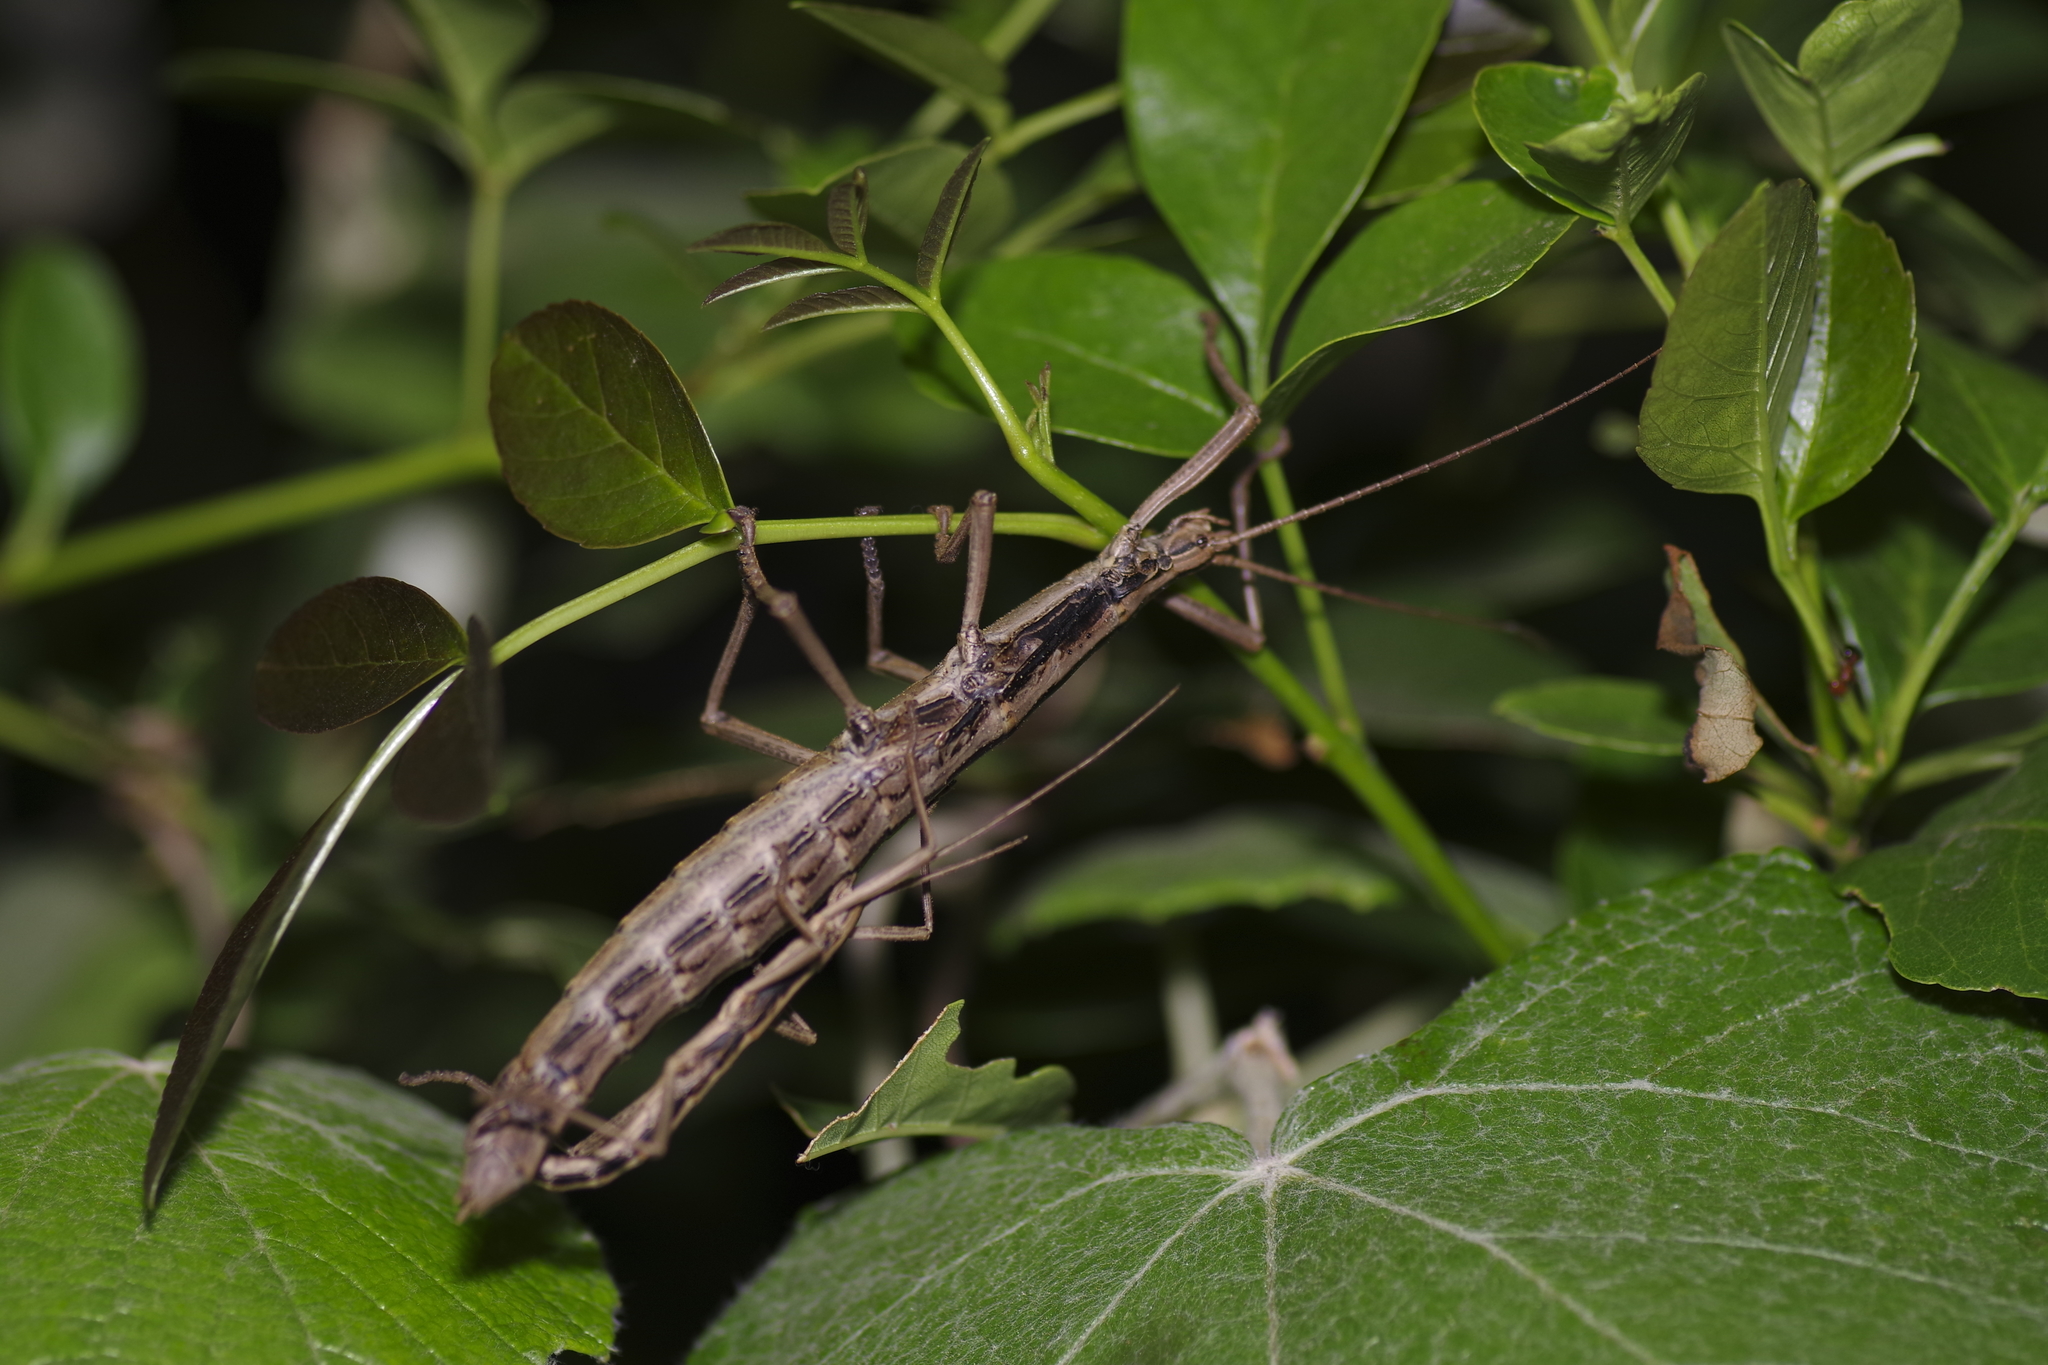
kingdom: Animalia
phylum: Arthropoda
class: Insecta
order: Phasmida
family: Pseudophasmatidae
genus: Anisomorpha
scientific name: Anisomorpha buprestoides
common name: Florida stick insect
